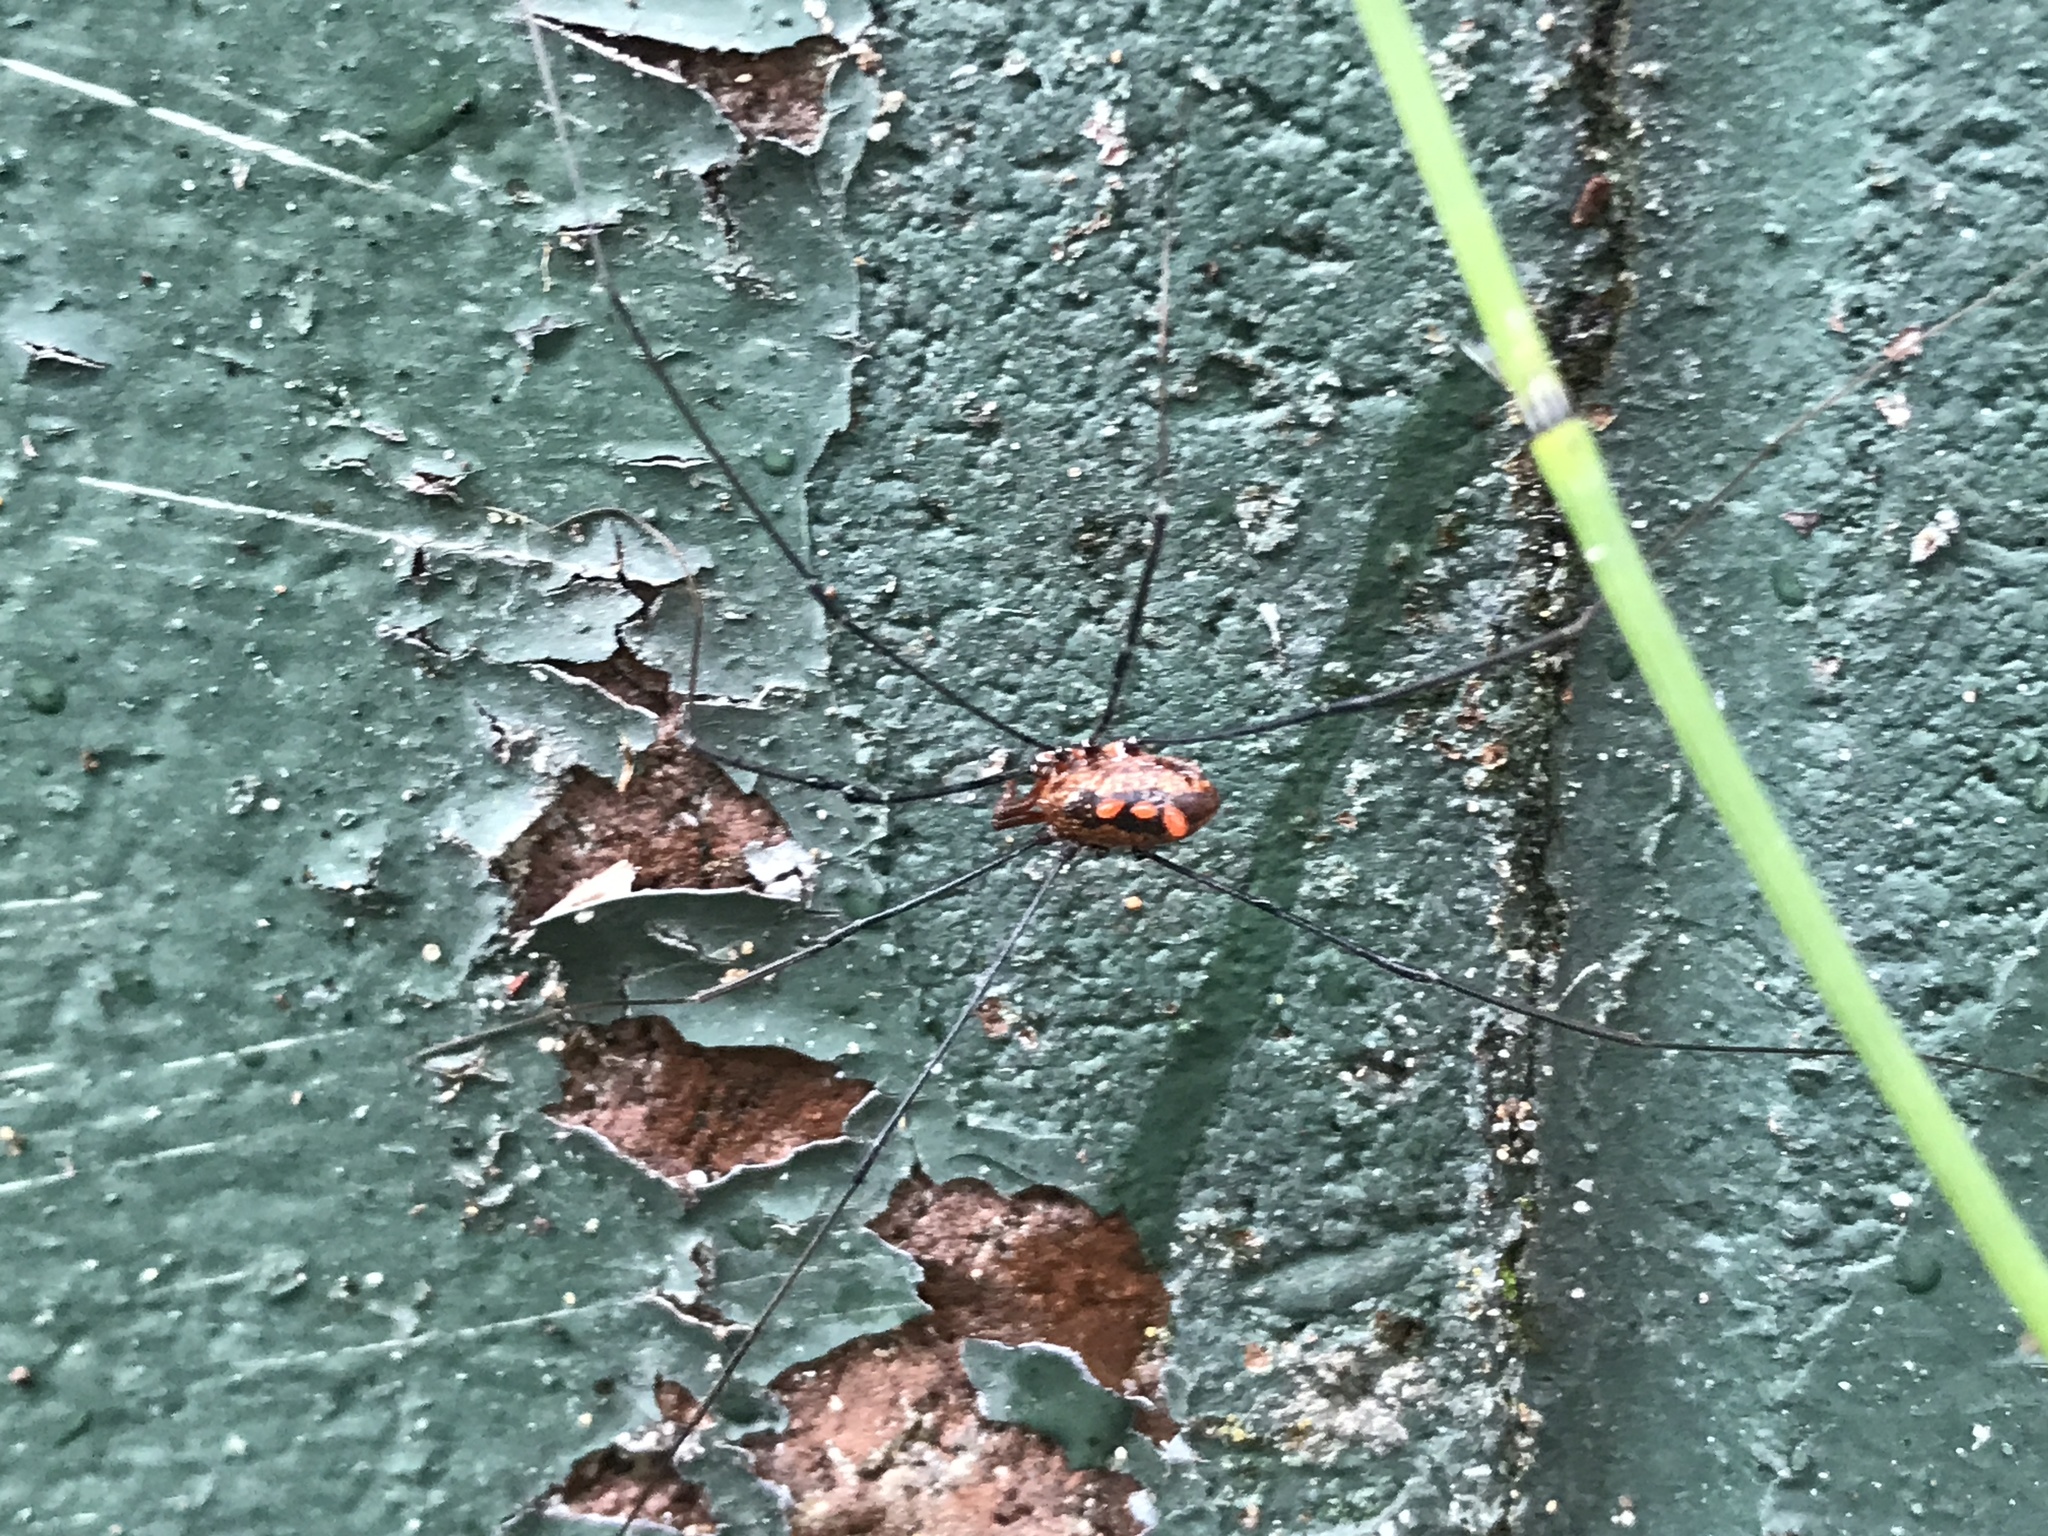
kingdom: Animalia
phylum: Arthropoda
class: Arachnida
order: Opiliones
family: Sclerosomatidae
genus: Leiobunum
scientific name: Leiobunum vittatum
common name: Eastern harvestman
